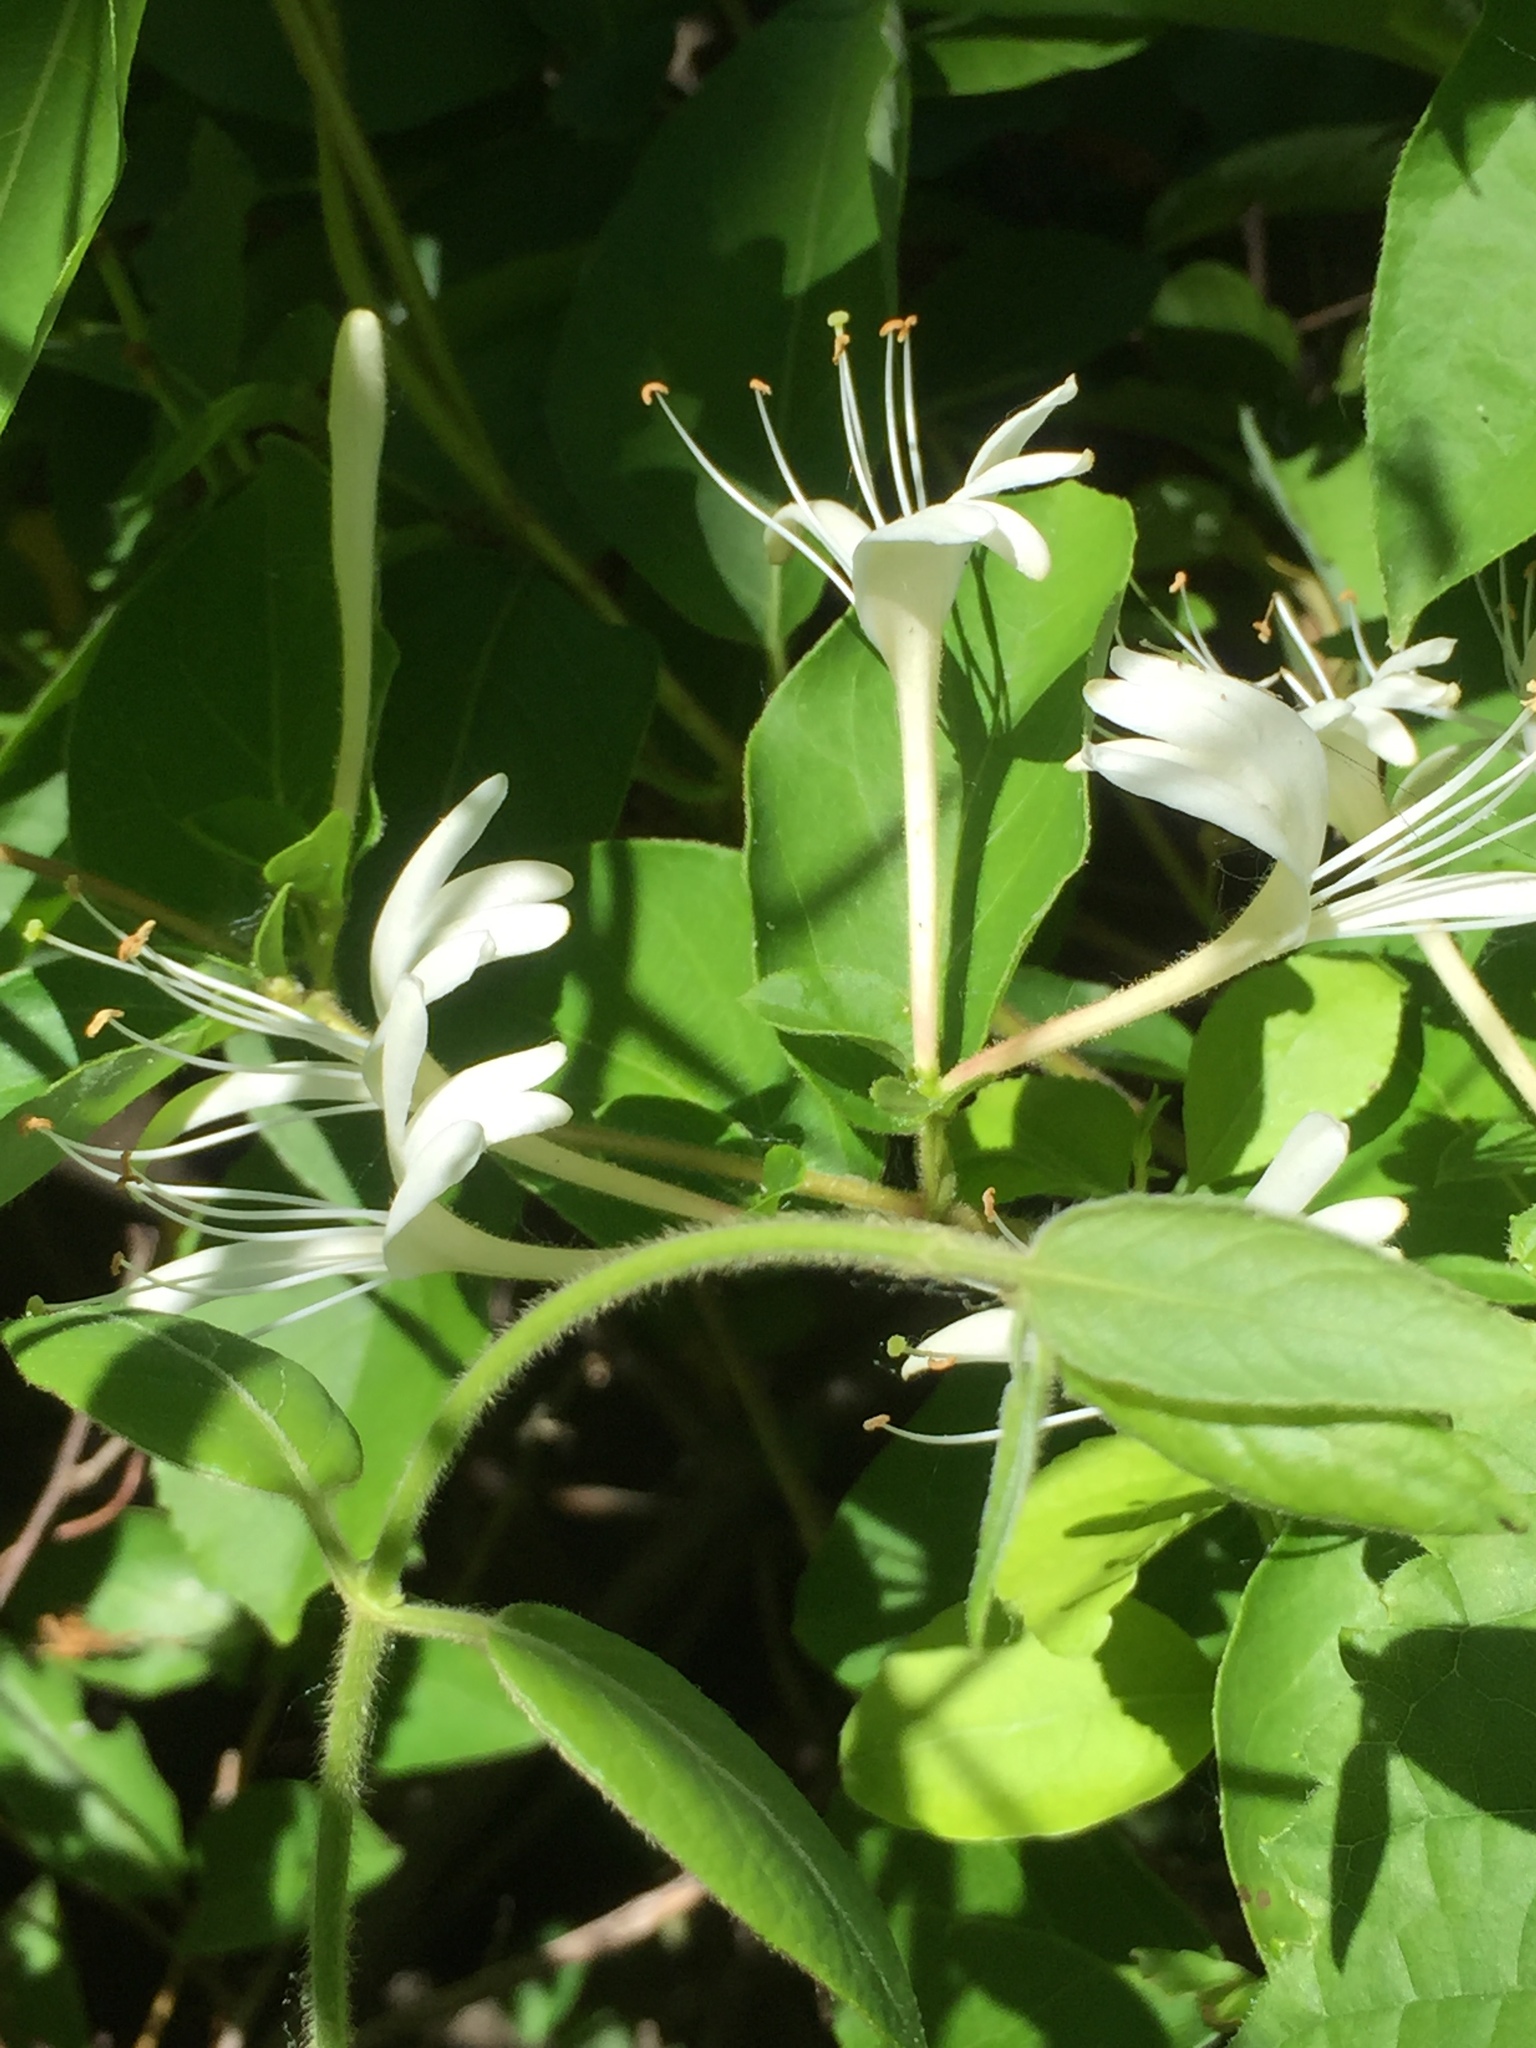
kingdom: Plantae
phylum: Tracheophyta
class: Magnoliopsida
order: Dipsacales
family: Caprifoliaceae
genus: Lonicera
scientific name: Lonicera japonica
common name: Japanese honeysuckle
